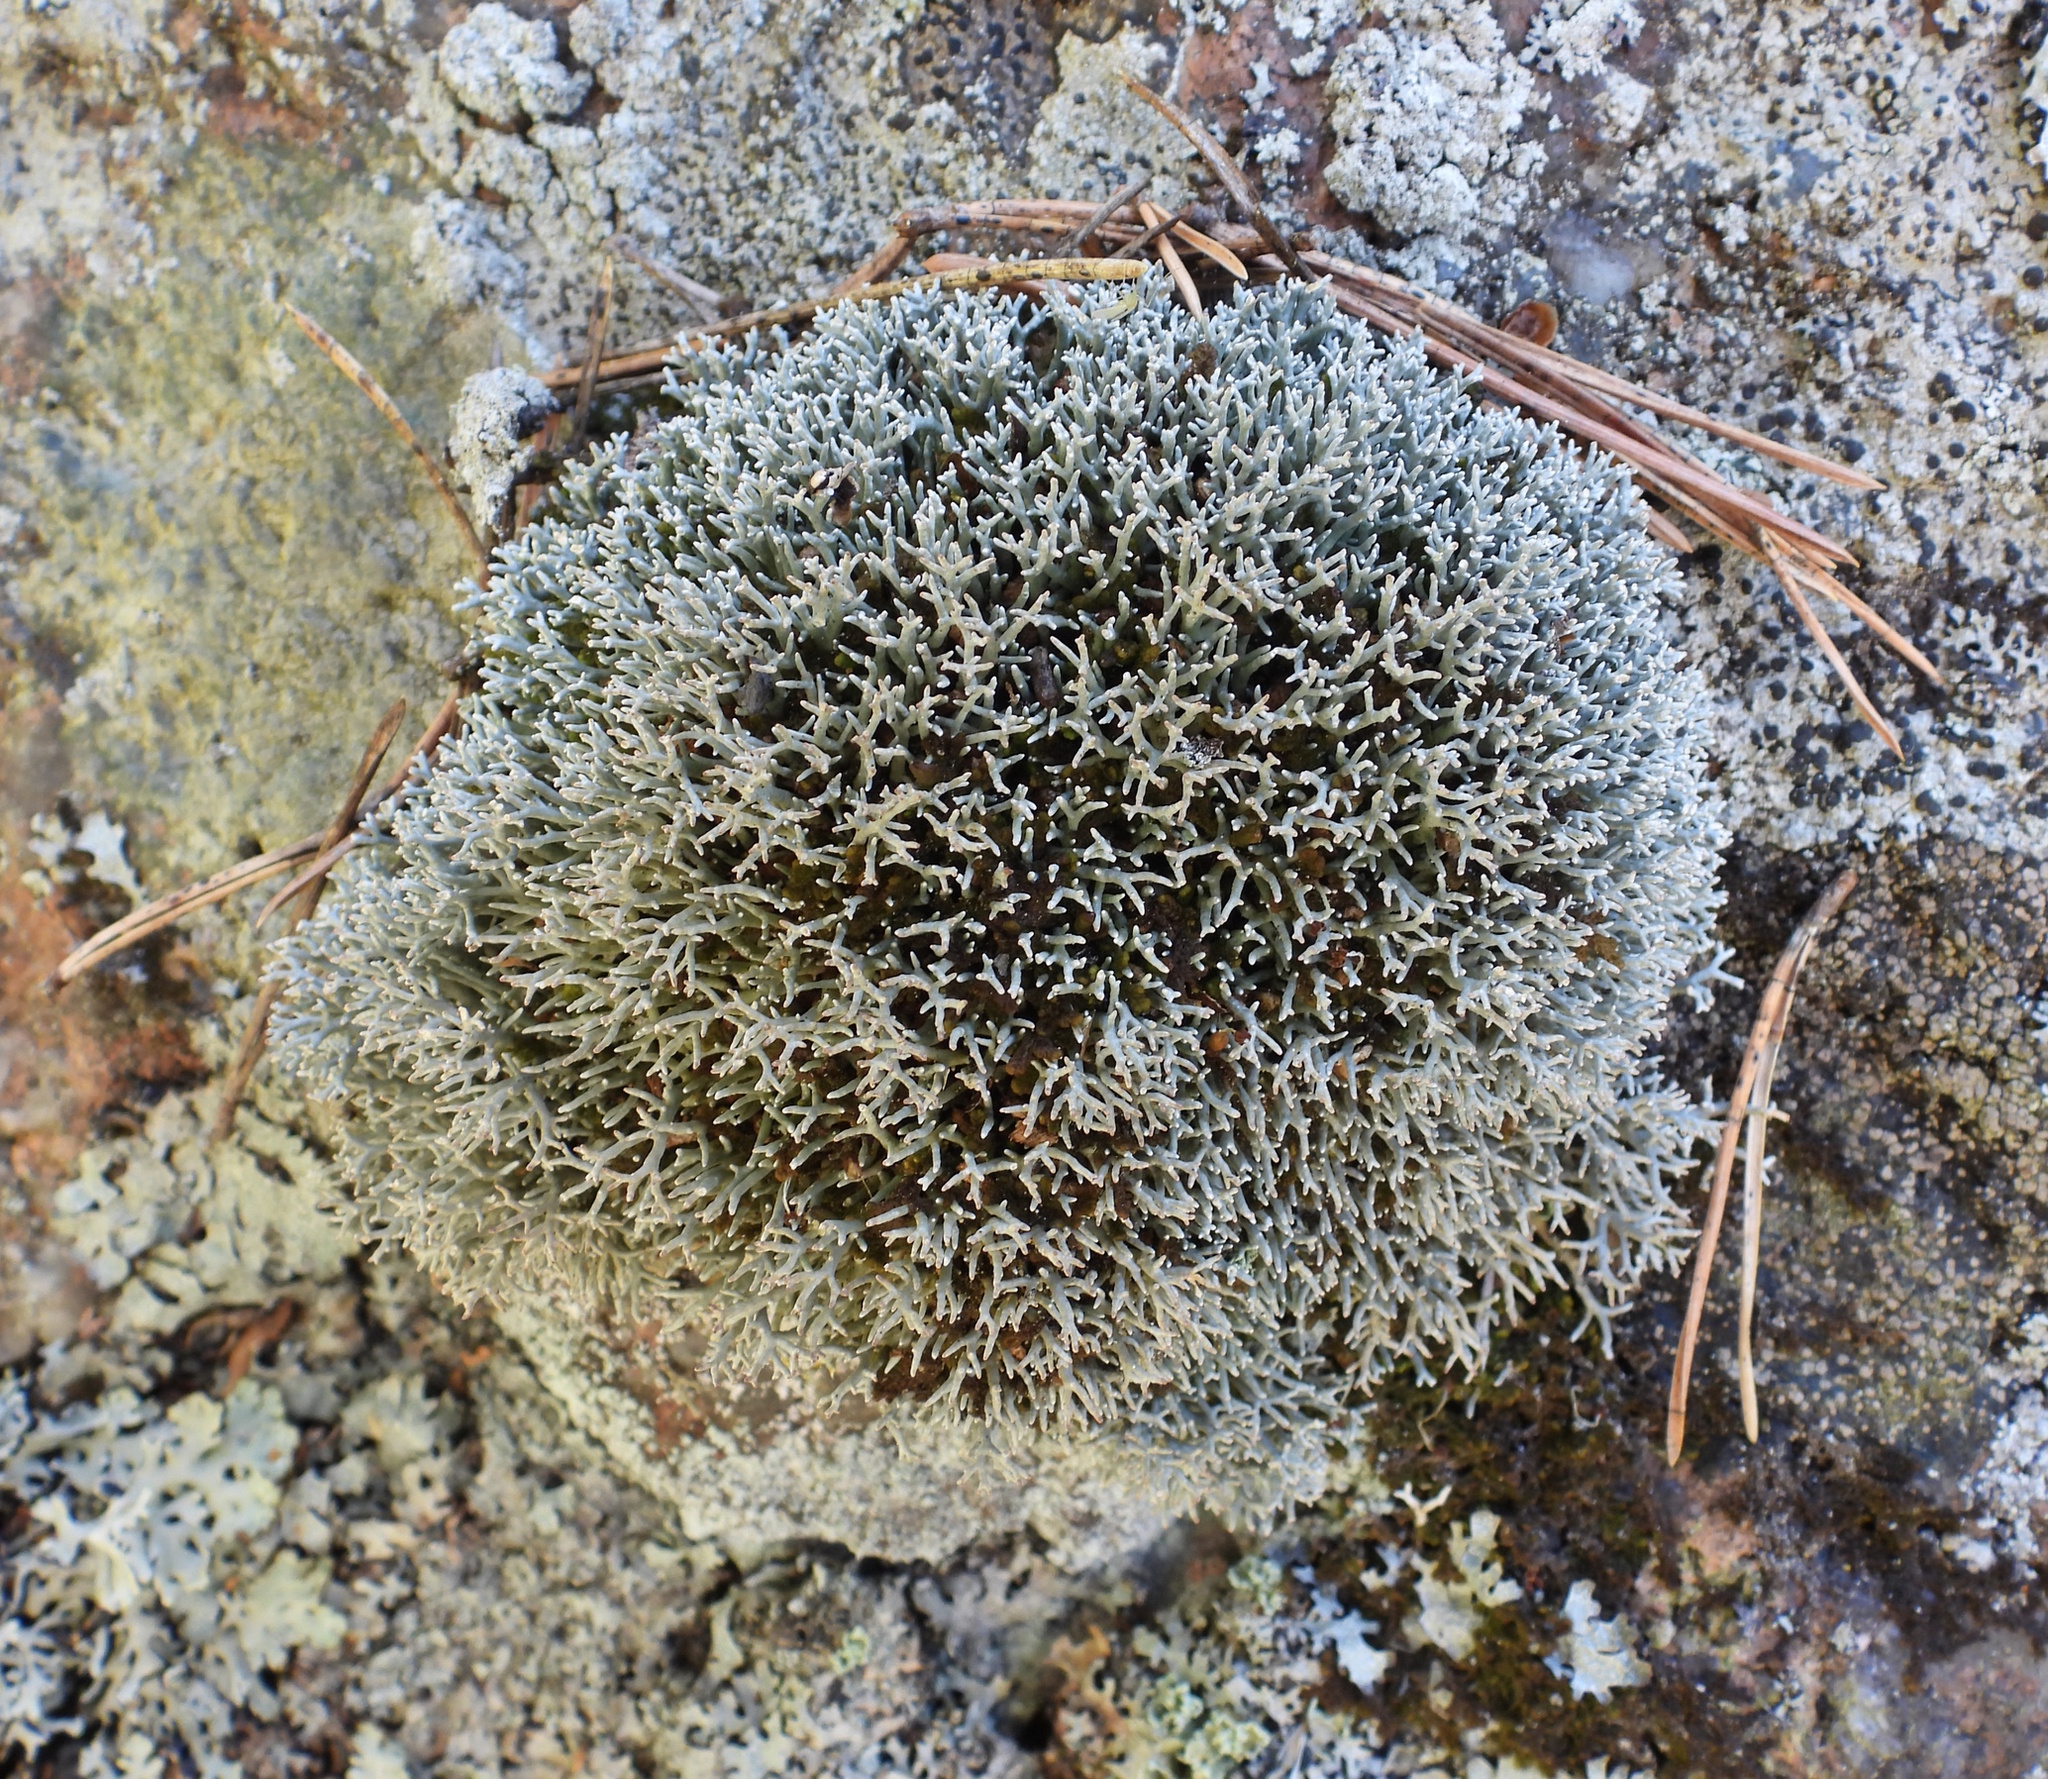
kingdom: Fungi
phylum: Ascomycota
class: Lecanoromycetes
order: Lecanorales
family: Sphaerophoraceae
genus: Sphaerophorus
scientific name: Sphaerophorus fragilis
